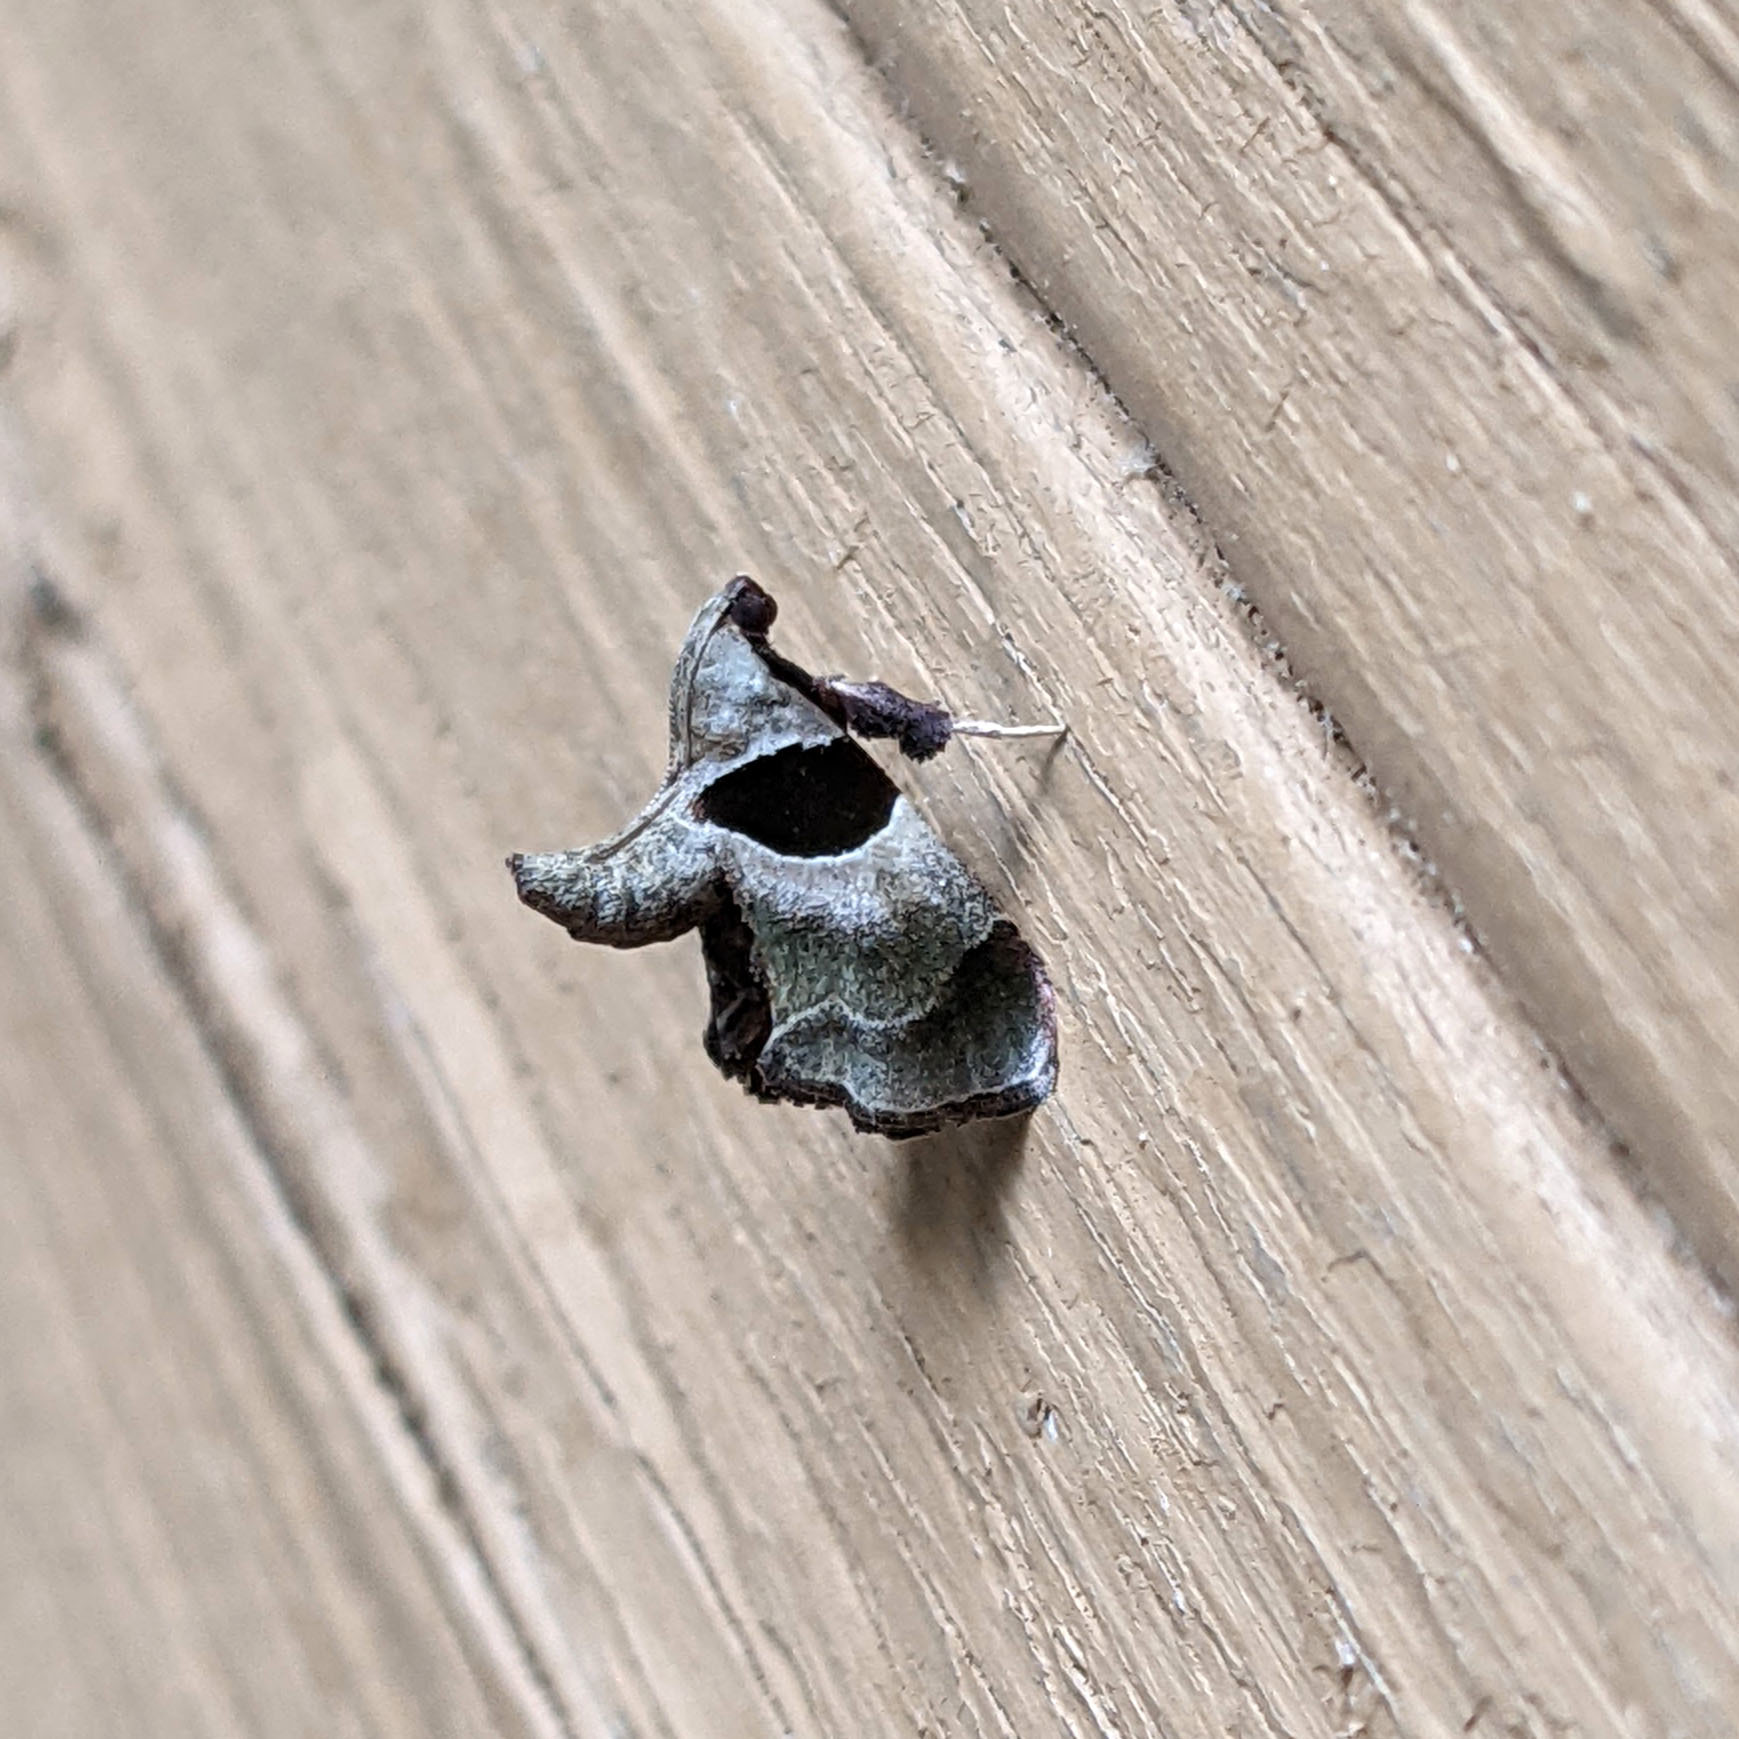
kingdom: Animalia
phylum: Arthropoda
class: Insecta
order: Lepidoptera
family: Pyralidae
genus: Tosale
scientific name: Tosale oviplagalis
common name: Dimorphic tosale moth
